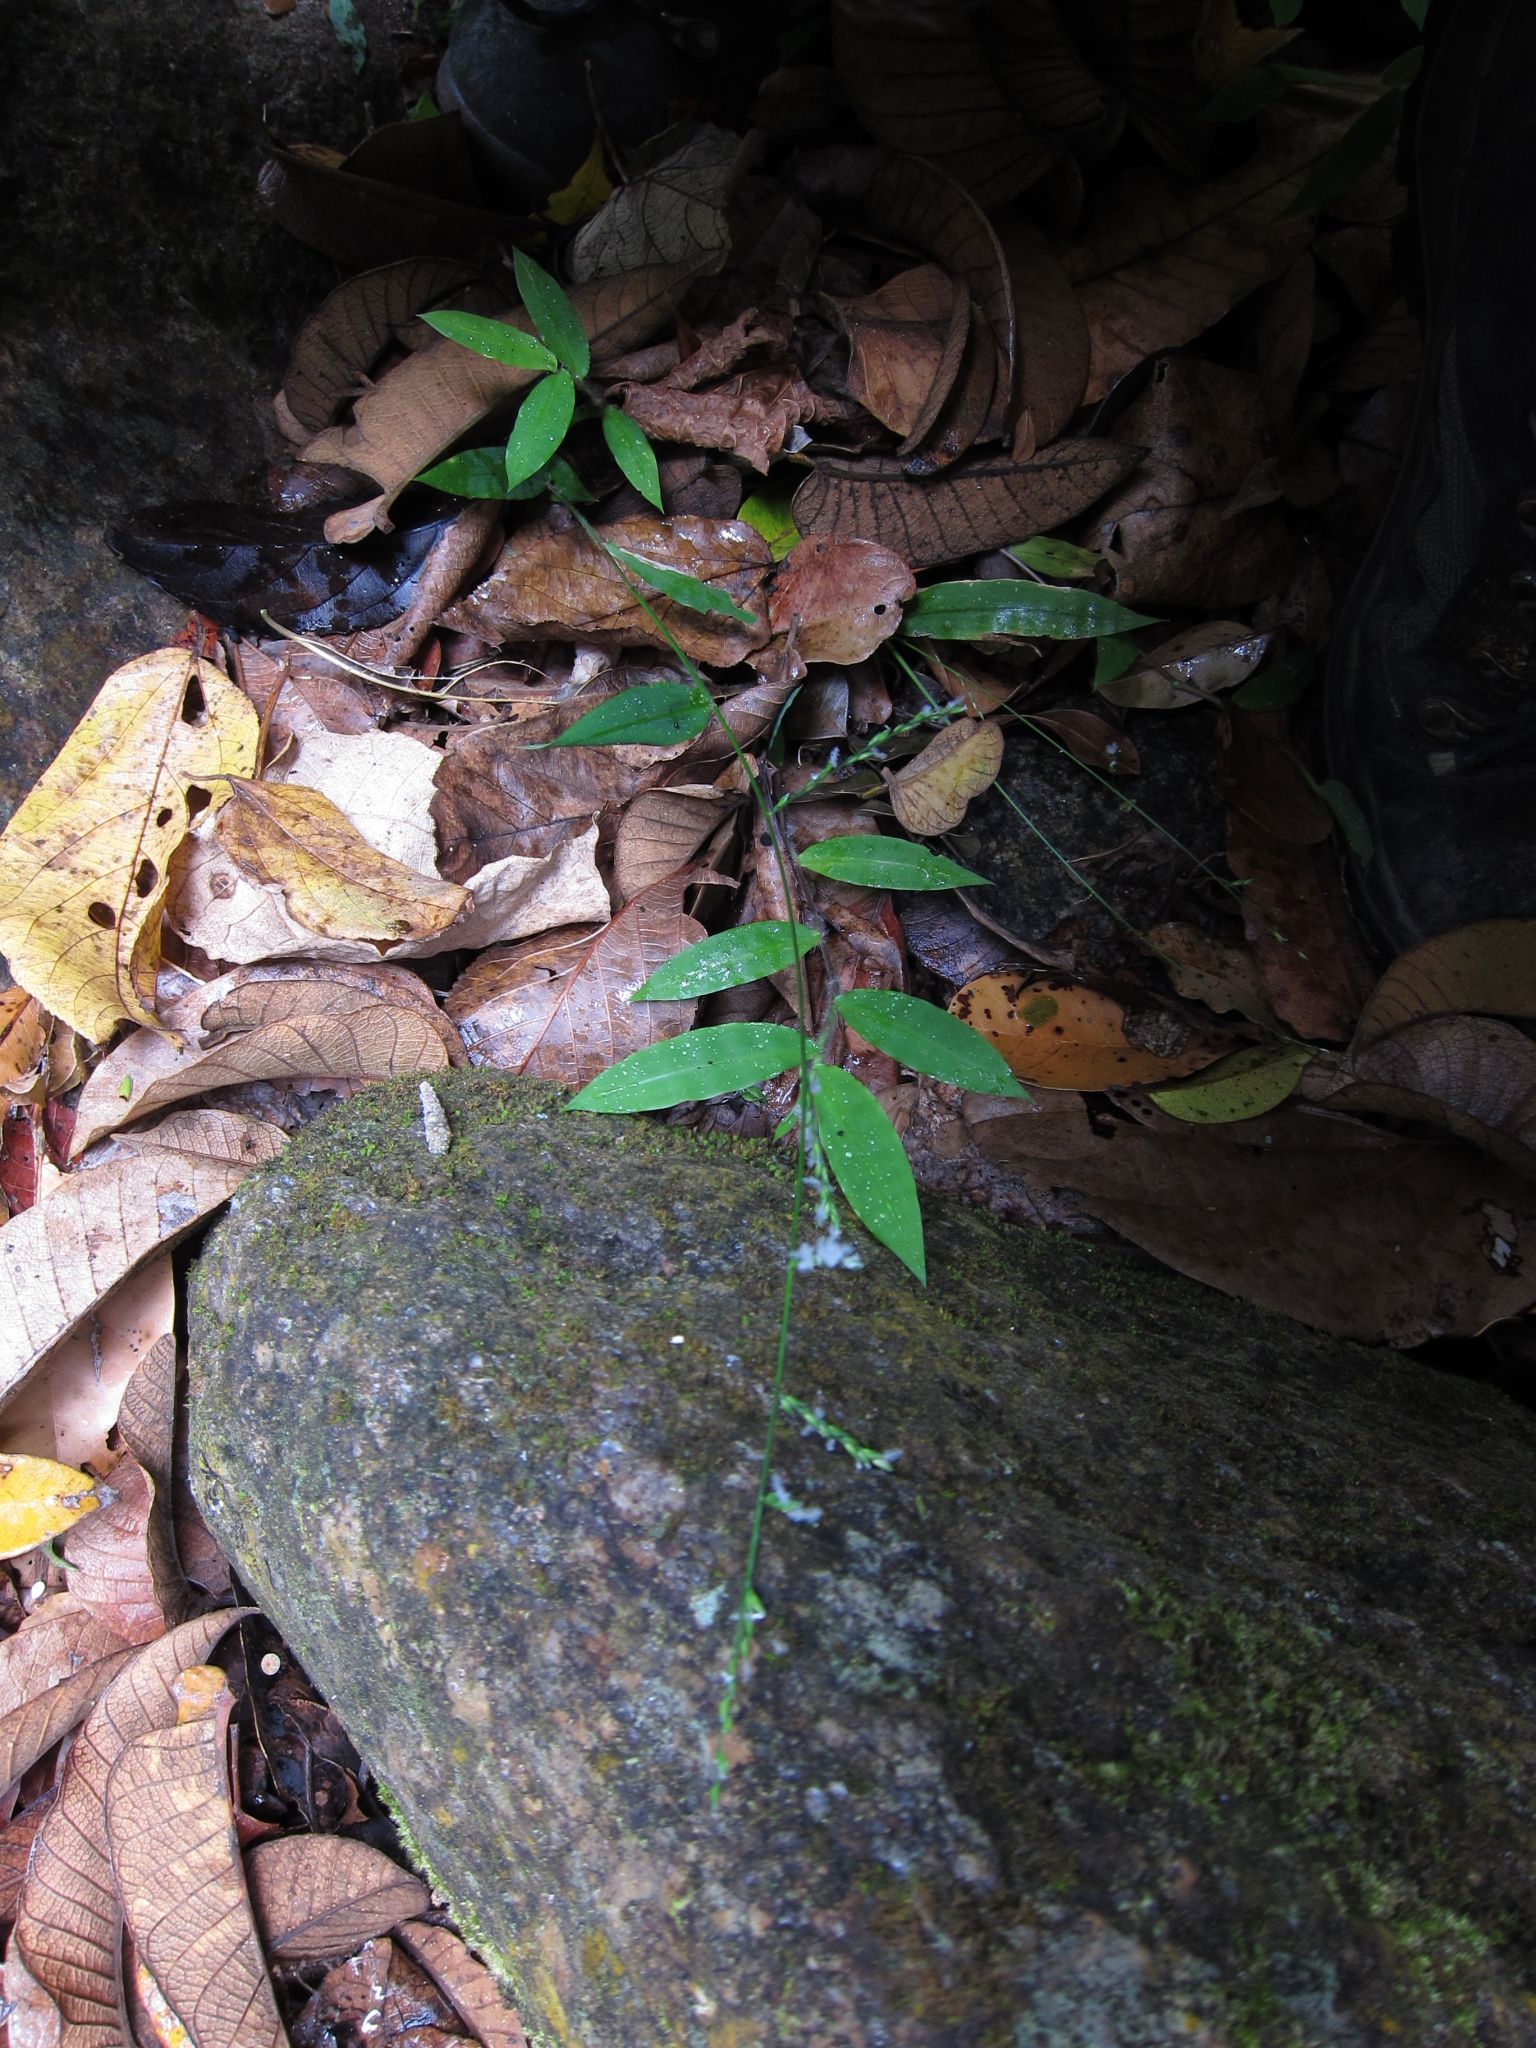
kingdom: Plantae
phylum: Tracheophyta
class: Liliopsida
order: Poales
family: Poaceae
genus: Acroceras
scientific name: Acroceras boivinii
